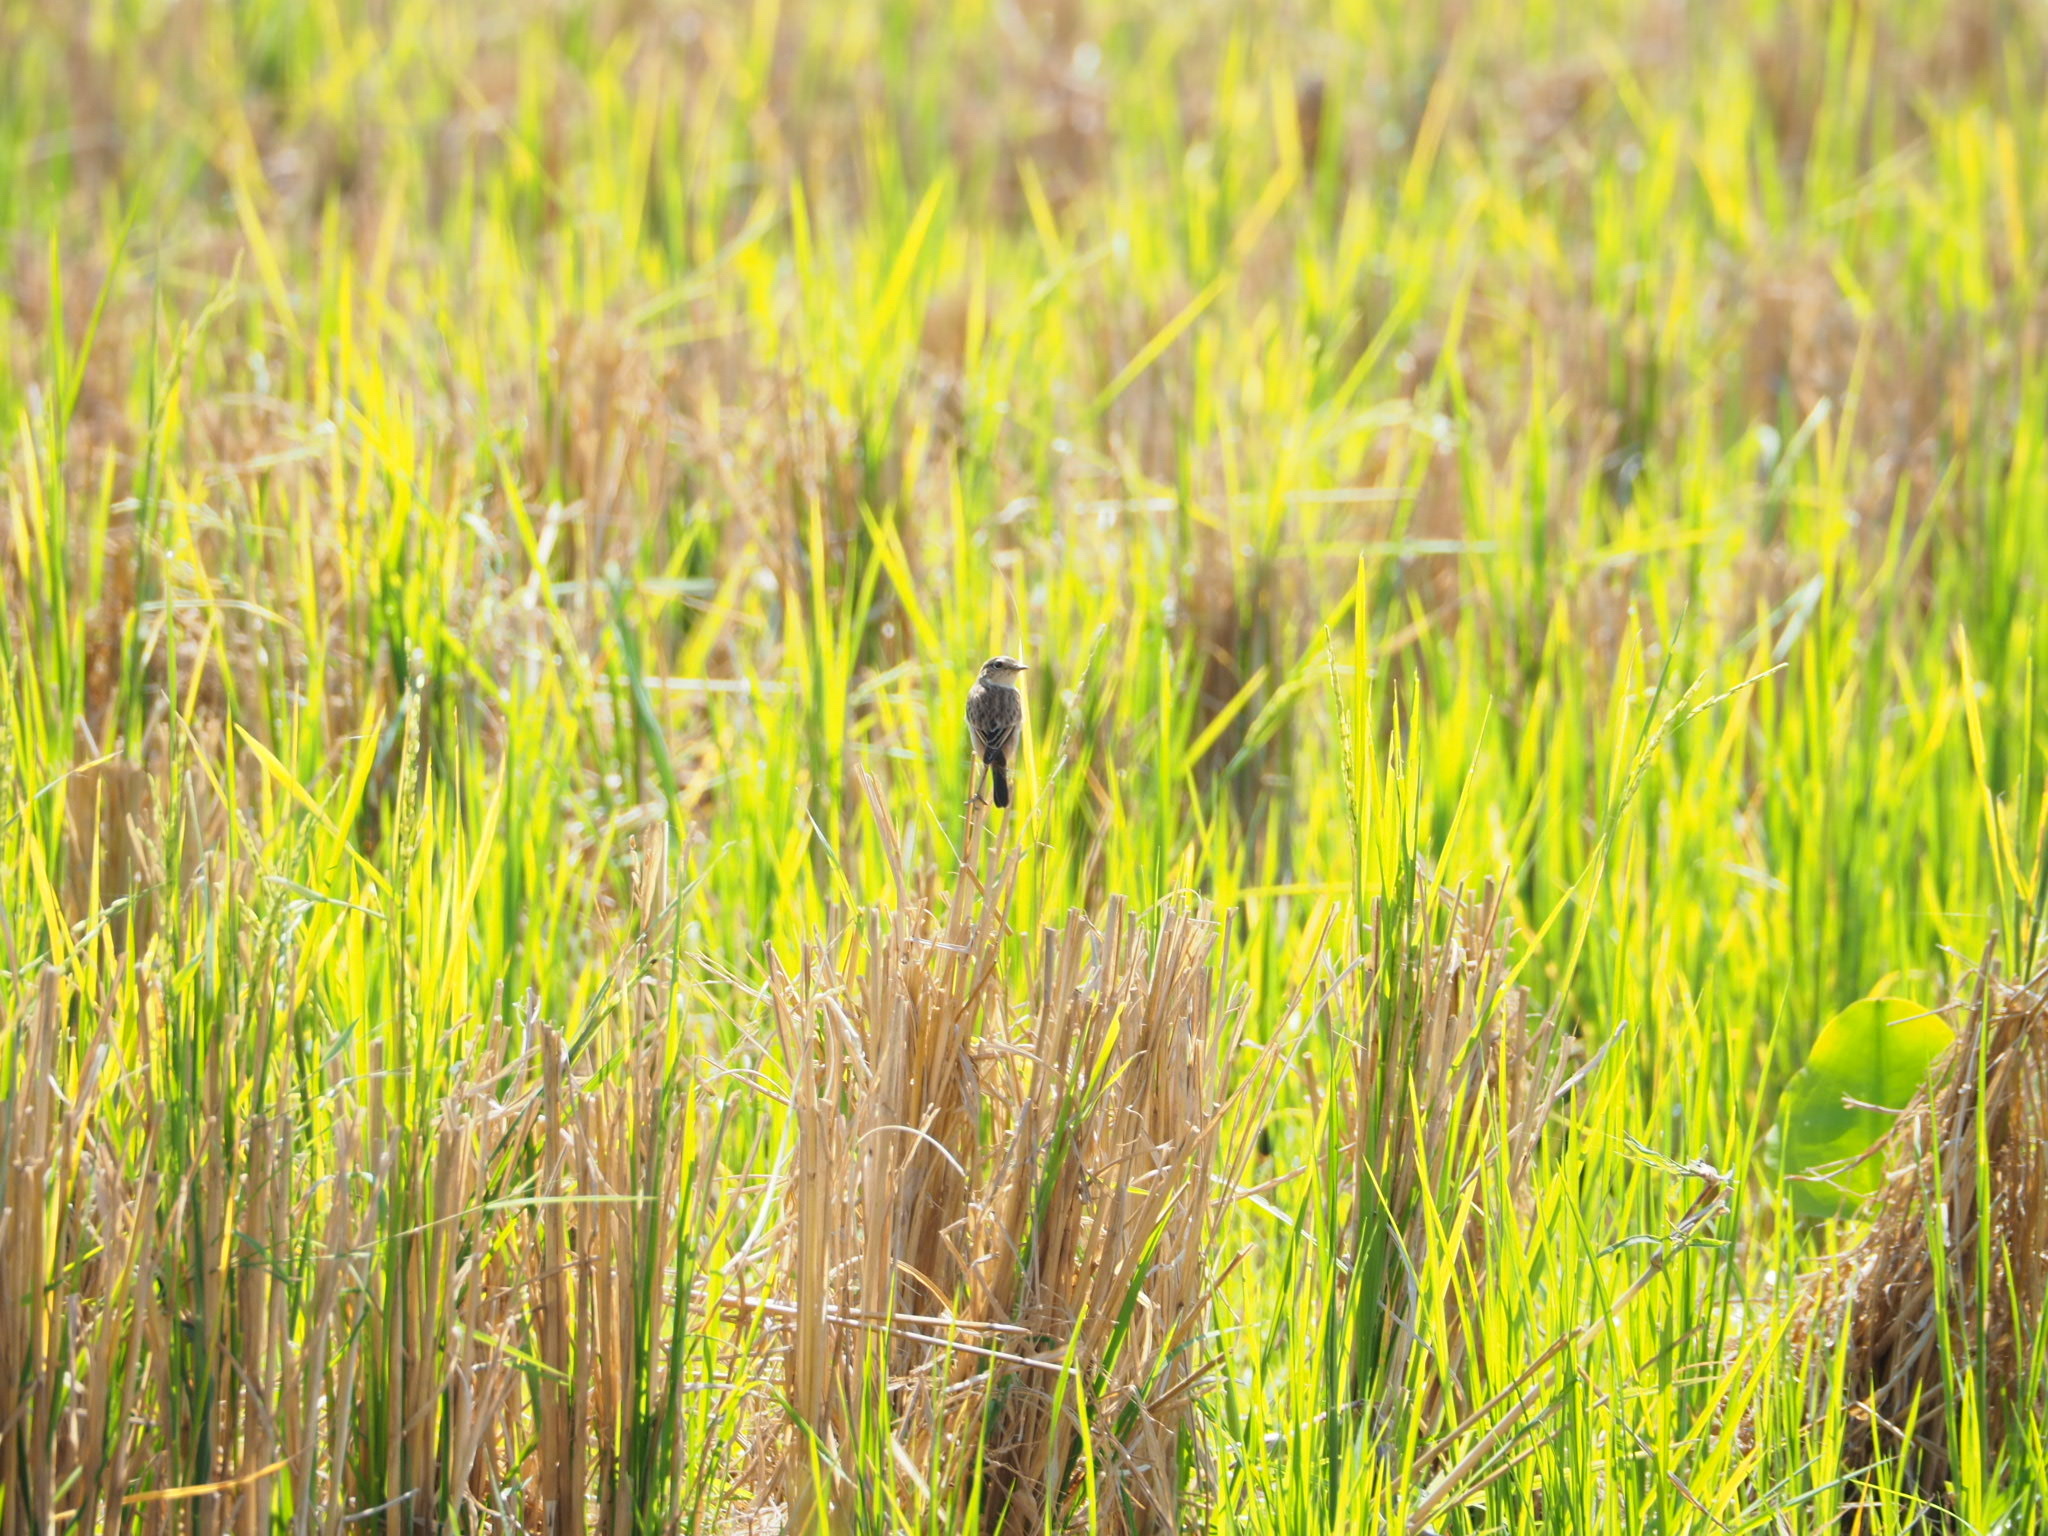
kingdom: Animalia
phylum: Chordata
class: Aves
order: Passeriformes
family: Muscicapidae
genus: Saxicola
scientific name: Saxicola stejnegeri
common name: Stejneger's stonechat
